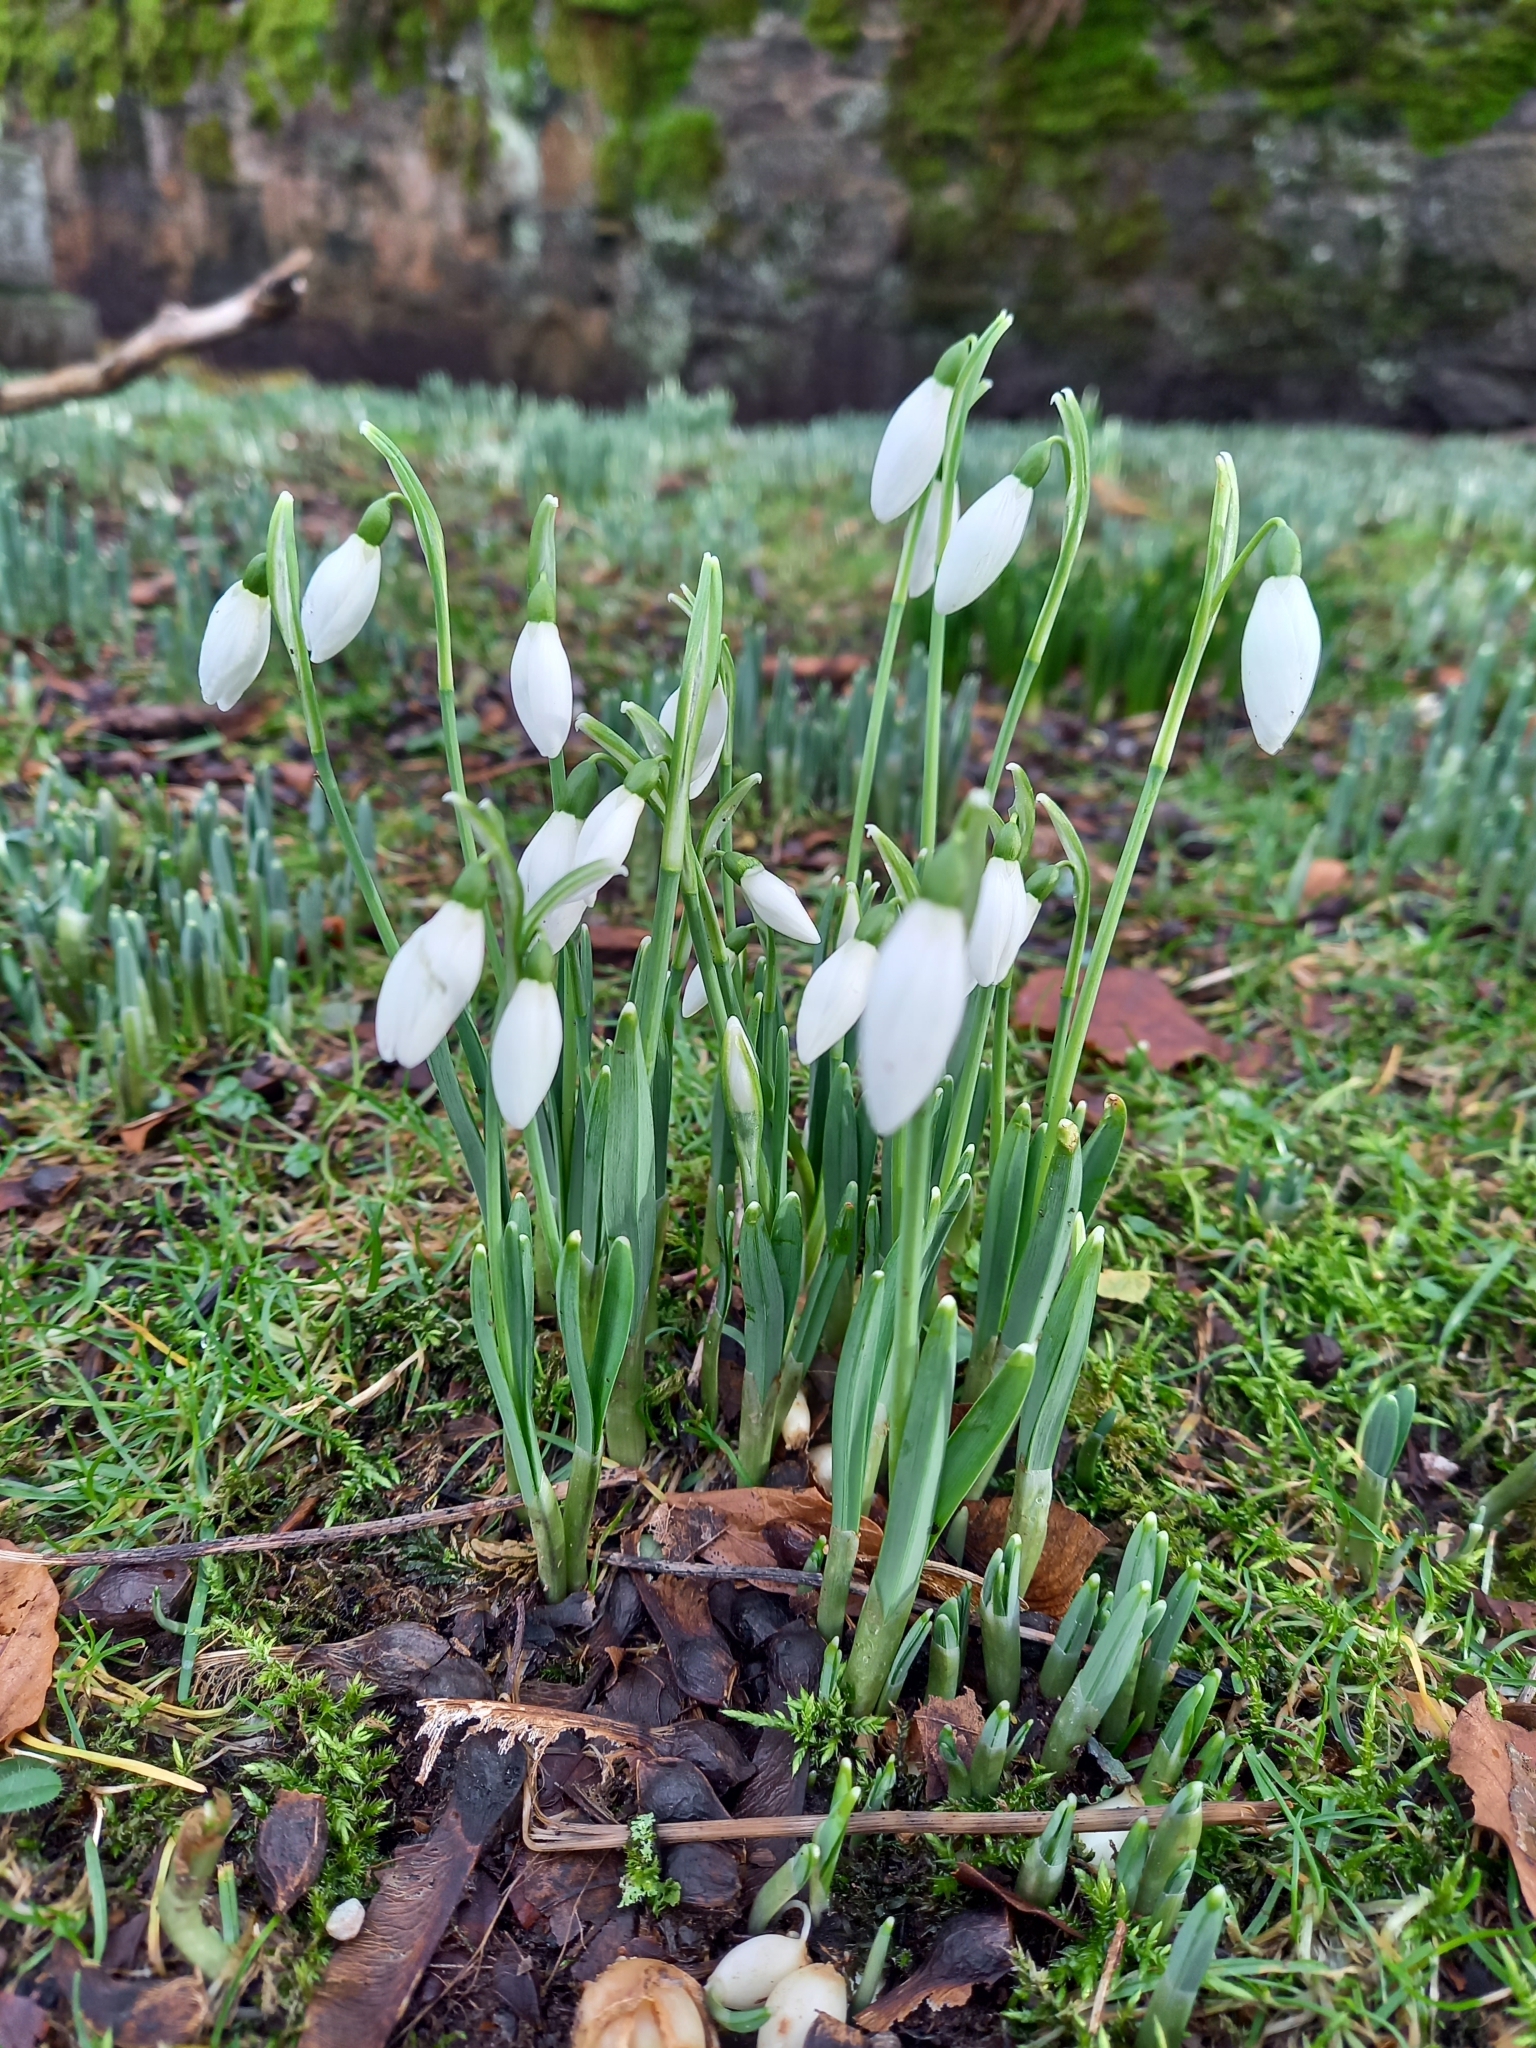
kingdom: Plantae
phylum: Tracheophyta
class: Liliopsida
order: Asparagales
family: Amaryllidaceae
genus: Galanthus
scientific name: Galanthus nivalis
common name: Snowdrop
